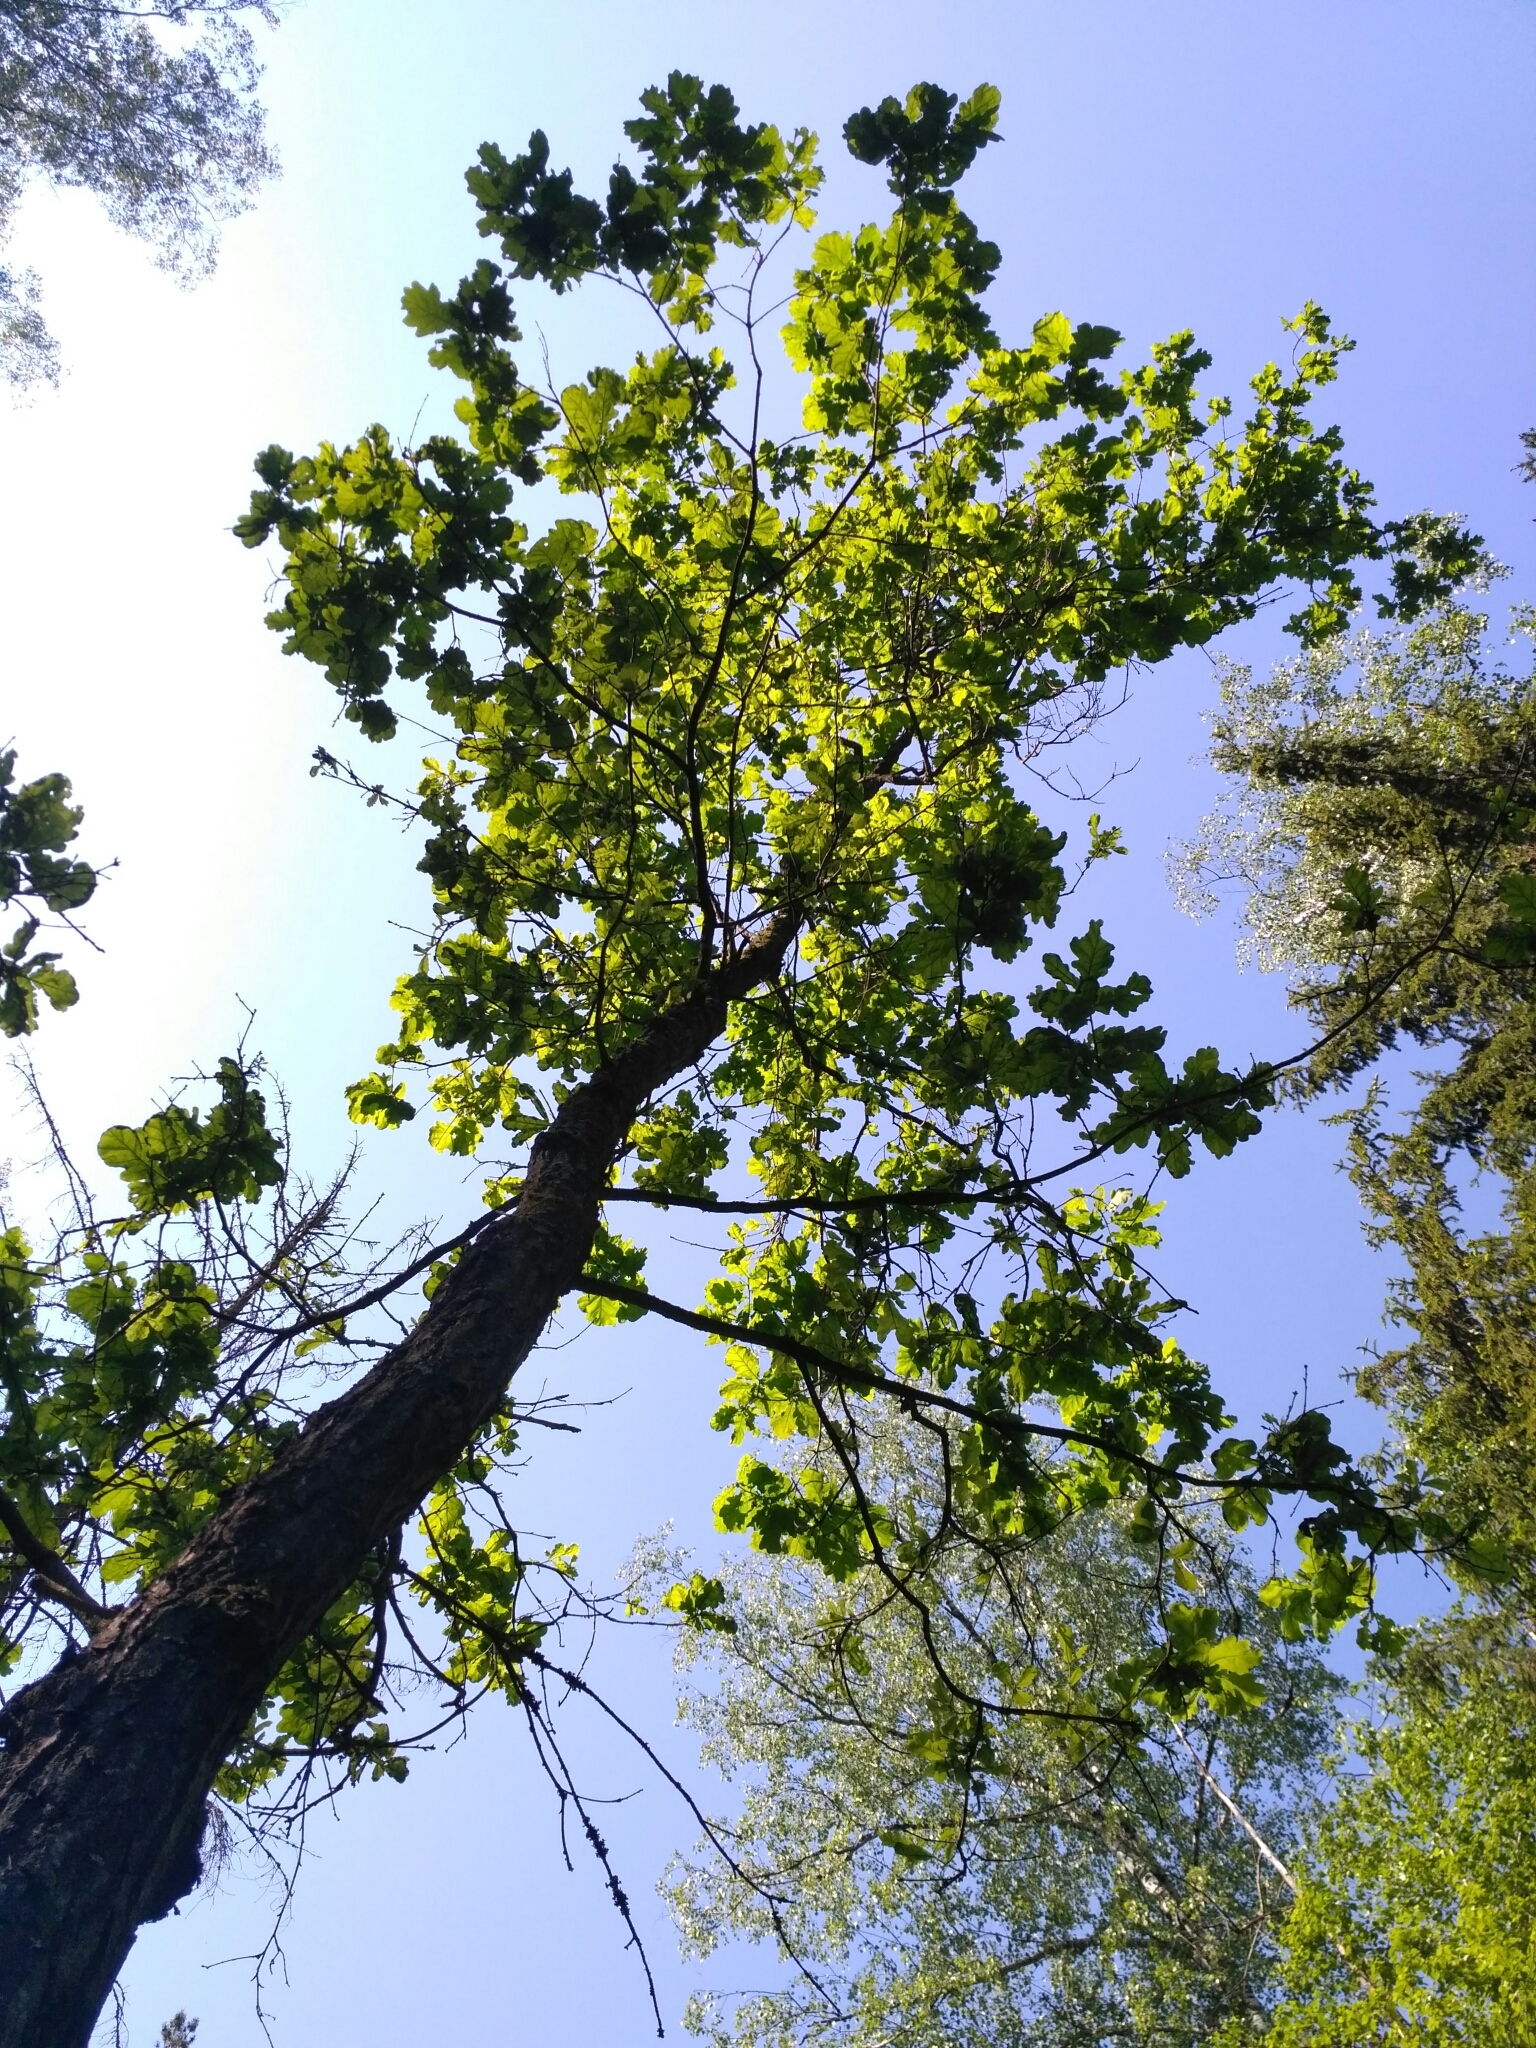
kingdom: Plantae
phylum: Tracheophyta
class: Magnoliopsida
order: Fagales
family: Fagaceae
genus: Quercus
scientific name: Quercus robur
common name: Pedunculate oak
